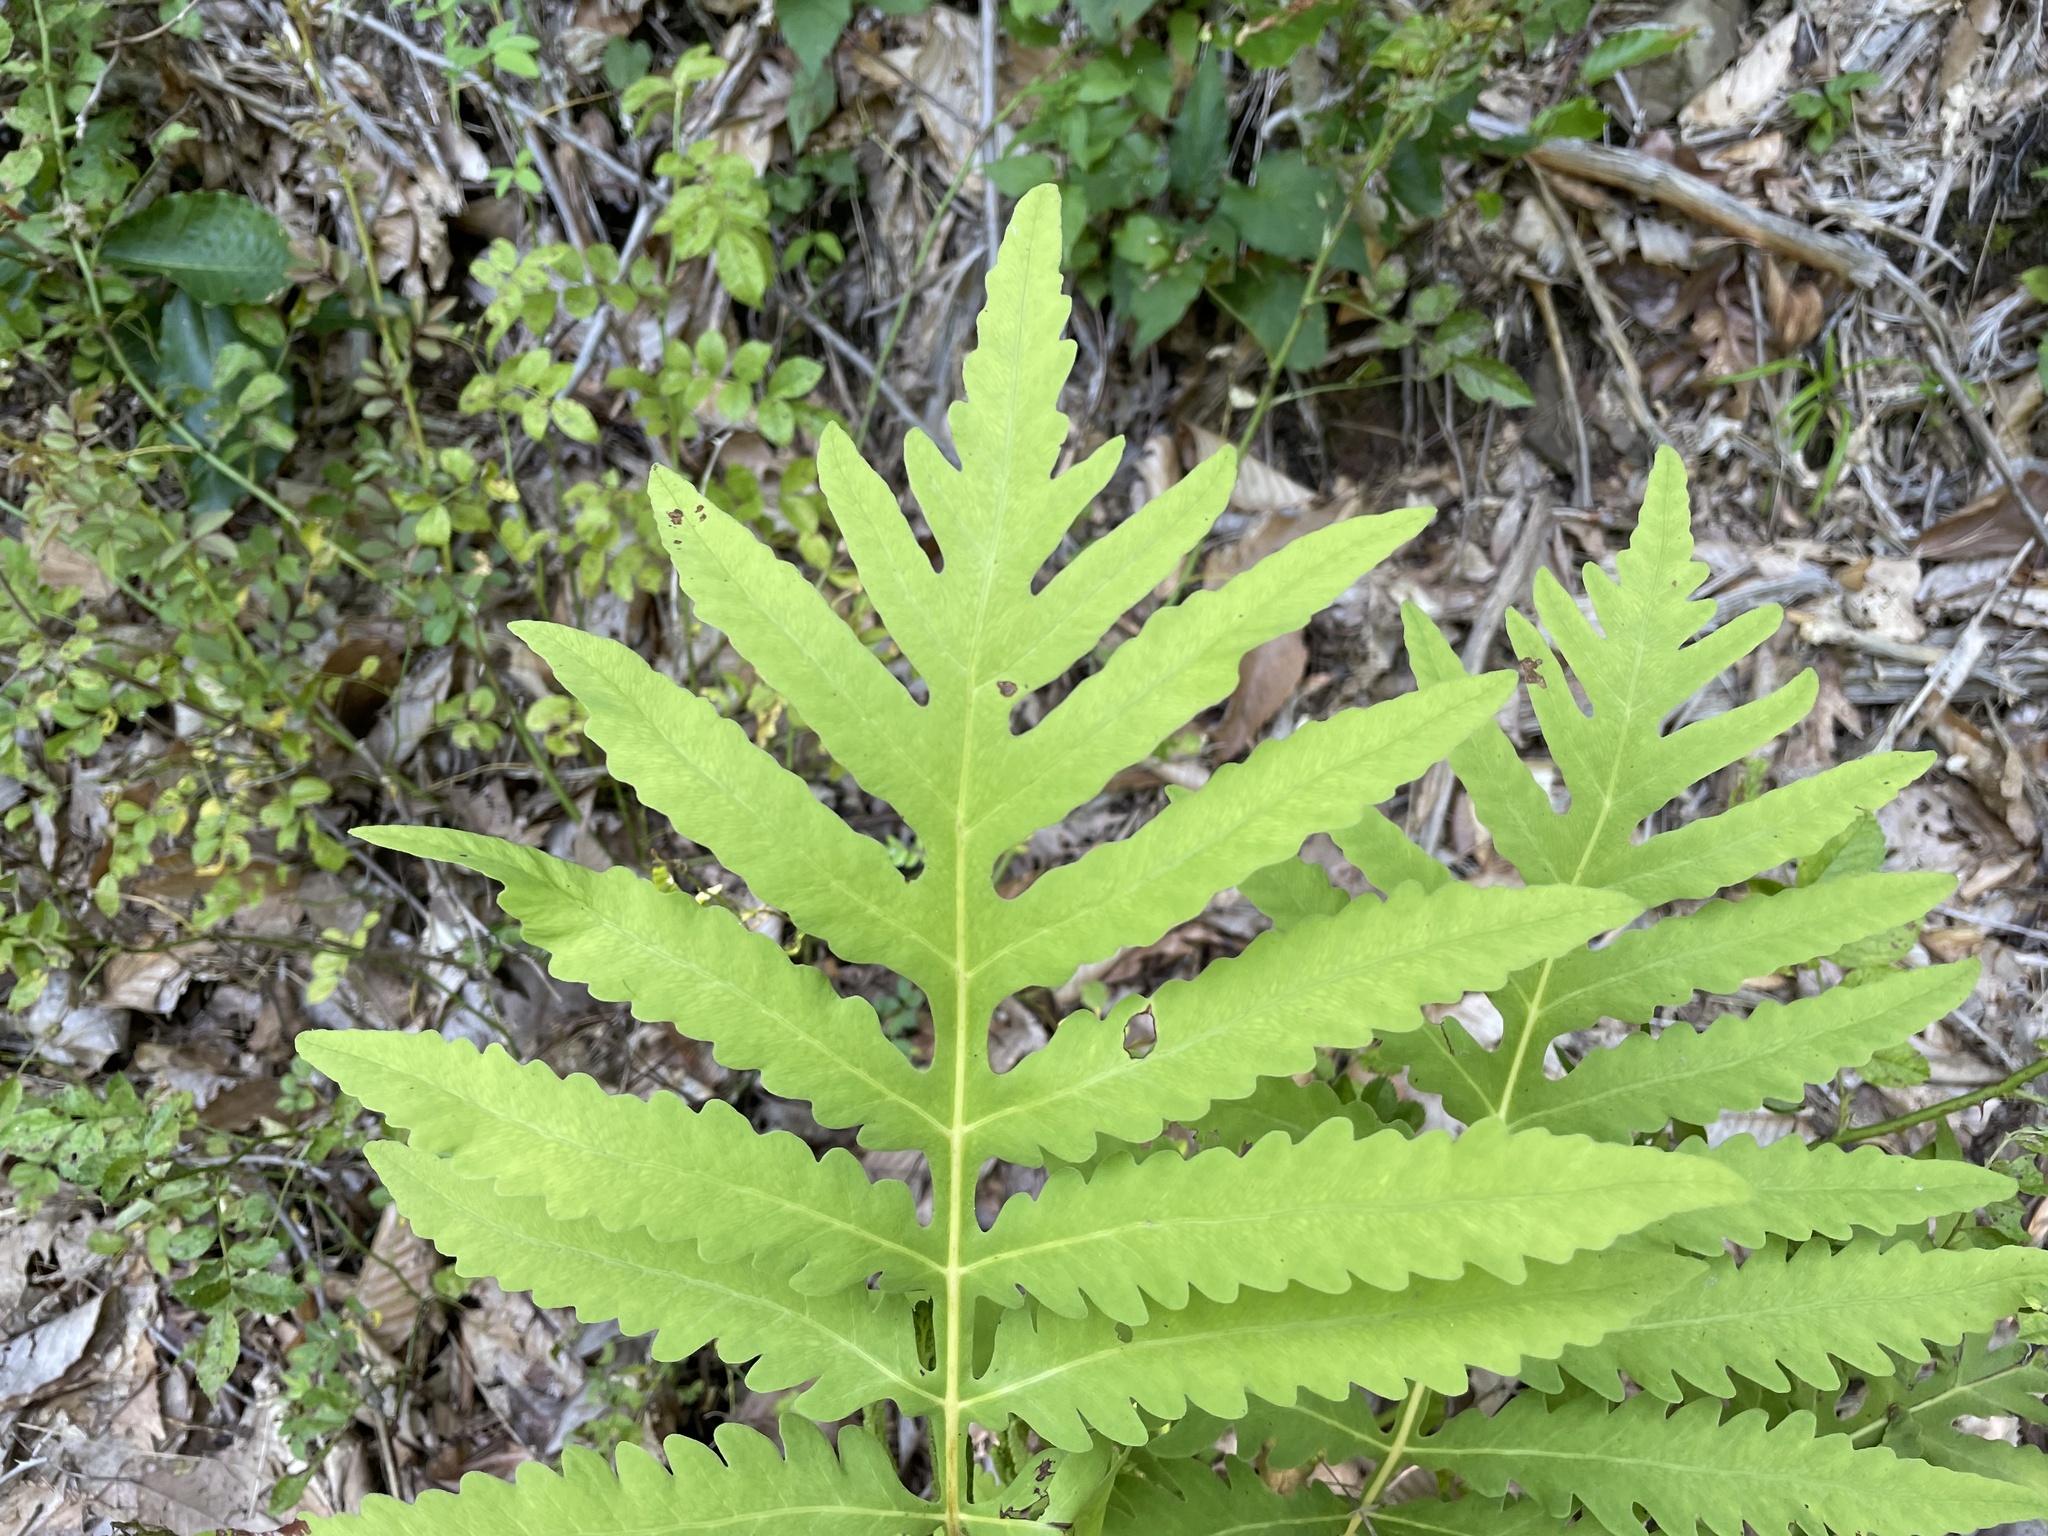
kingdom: Plantae
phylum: Tracheophyta
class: Polypodiopsida
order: Polypodiales
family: Onocleaceae
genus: Onoclea
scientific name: Onoclea sensibilis
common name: Sensitive fern
